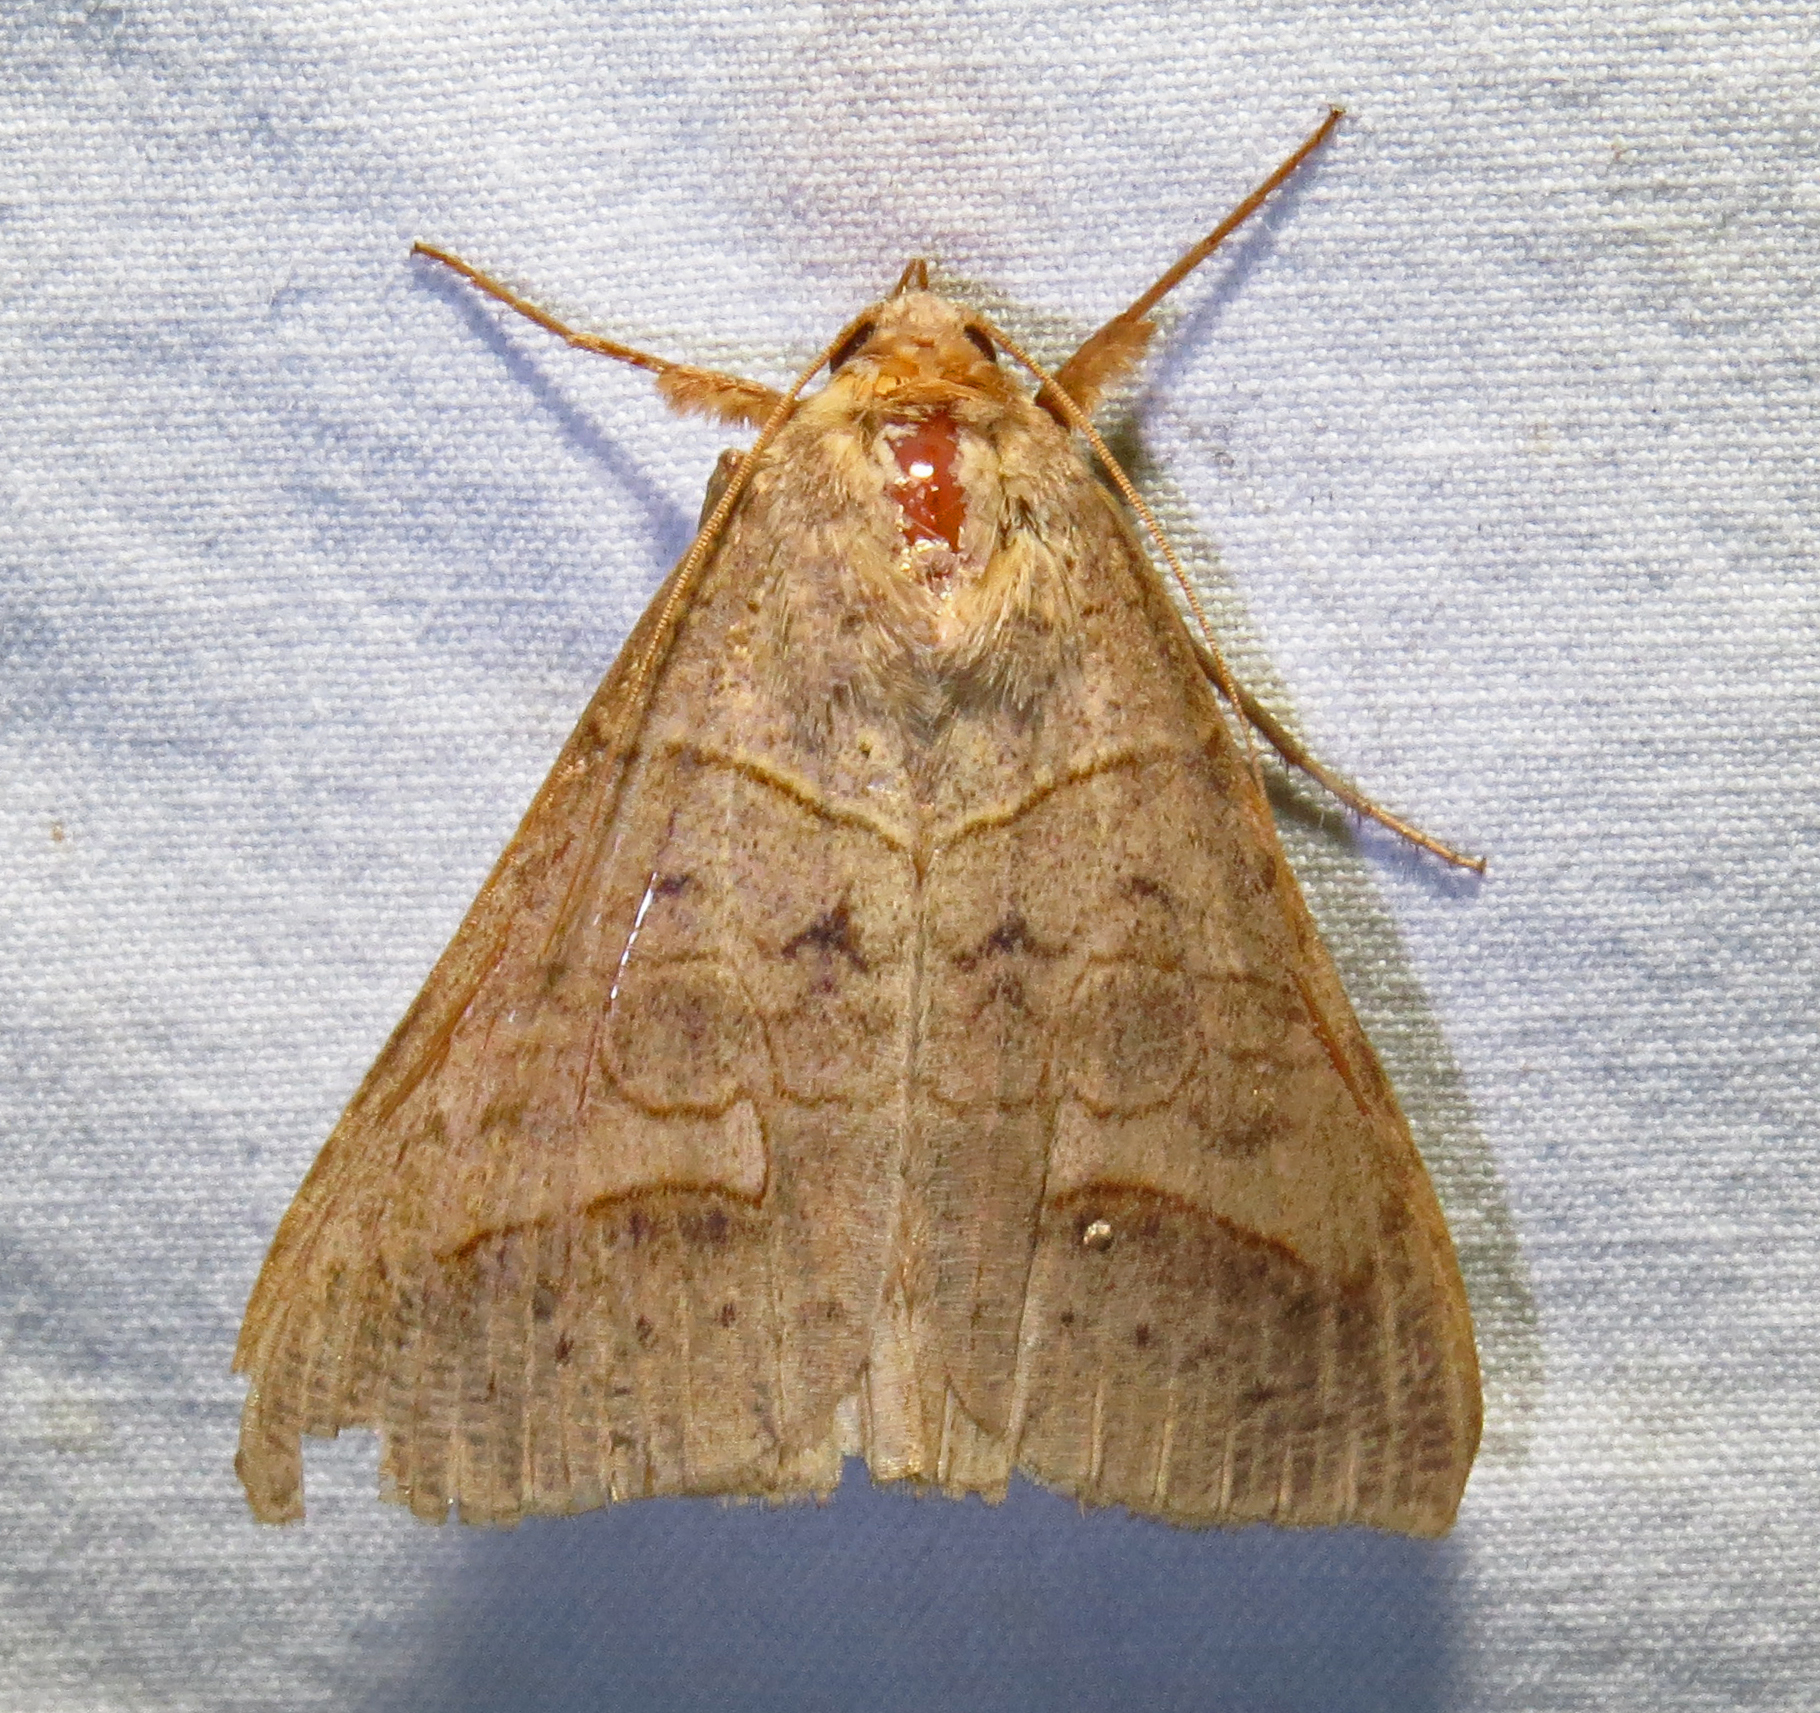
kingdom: Animalia
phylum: Arthropoda
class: Insecta
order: Lepidoptera
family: Erebidae
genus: Mocis
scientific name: Mocis texana
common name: Texas mocis moth
